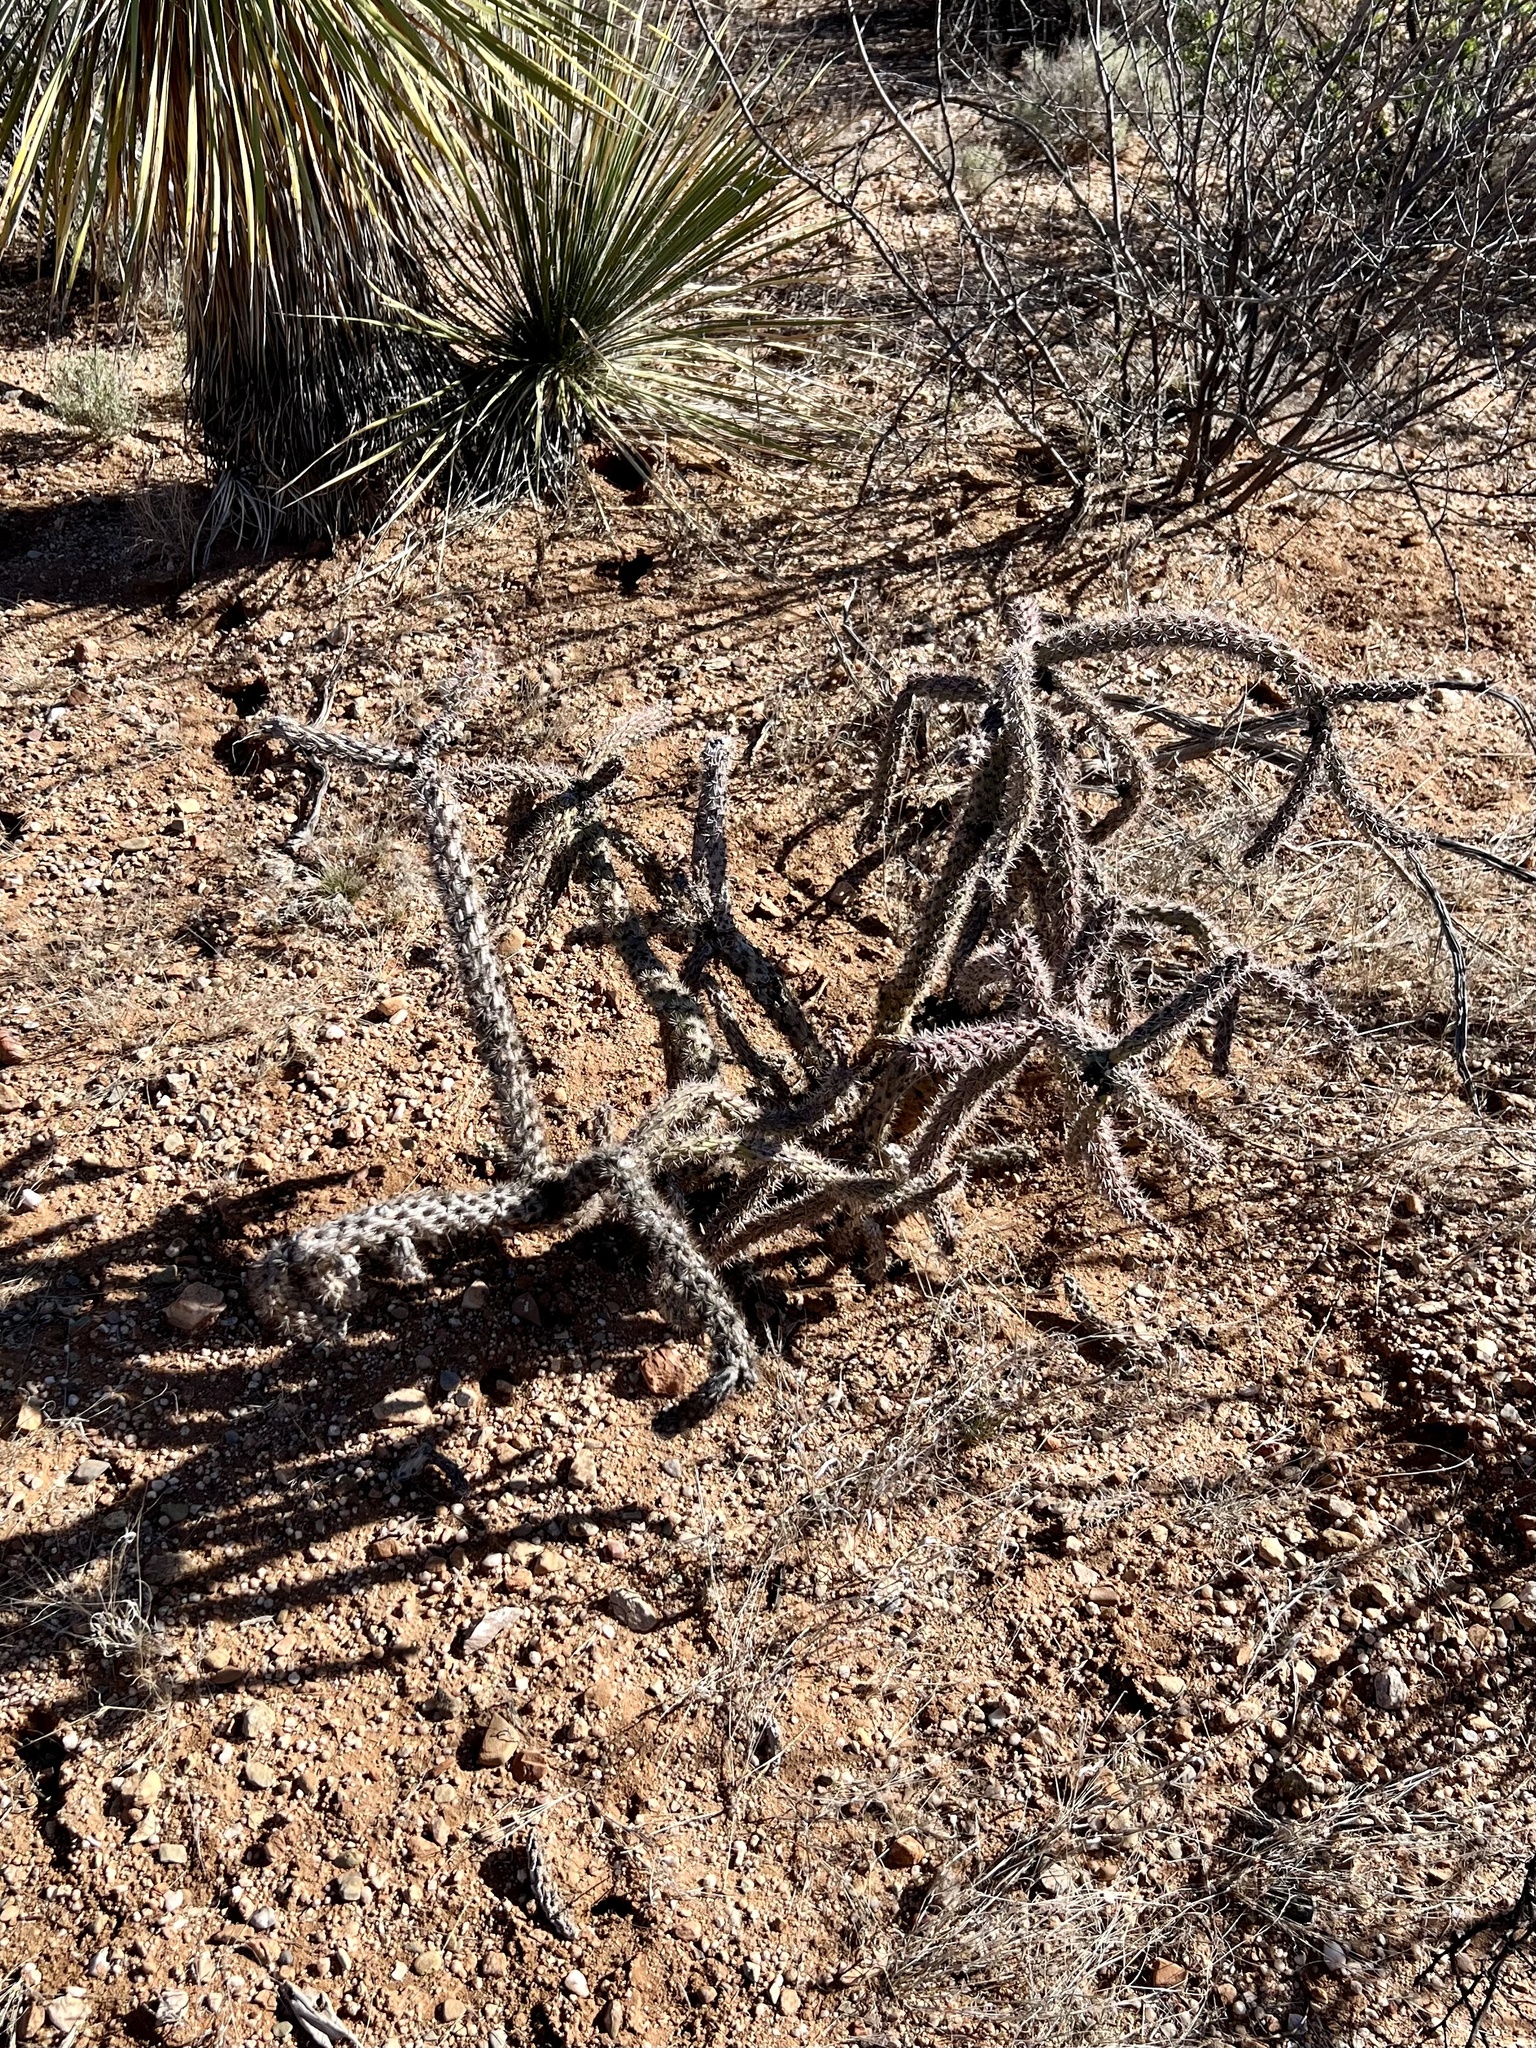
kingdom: Plantae
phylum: Tracheophyta
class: Magnoliopsida
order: Caryophyllales
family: Cactaceae
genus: Cylindropuntia
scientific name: Cylindropuntia imbricata
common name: Candelabrum cactus
